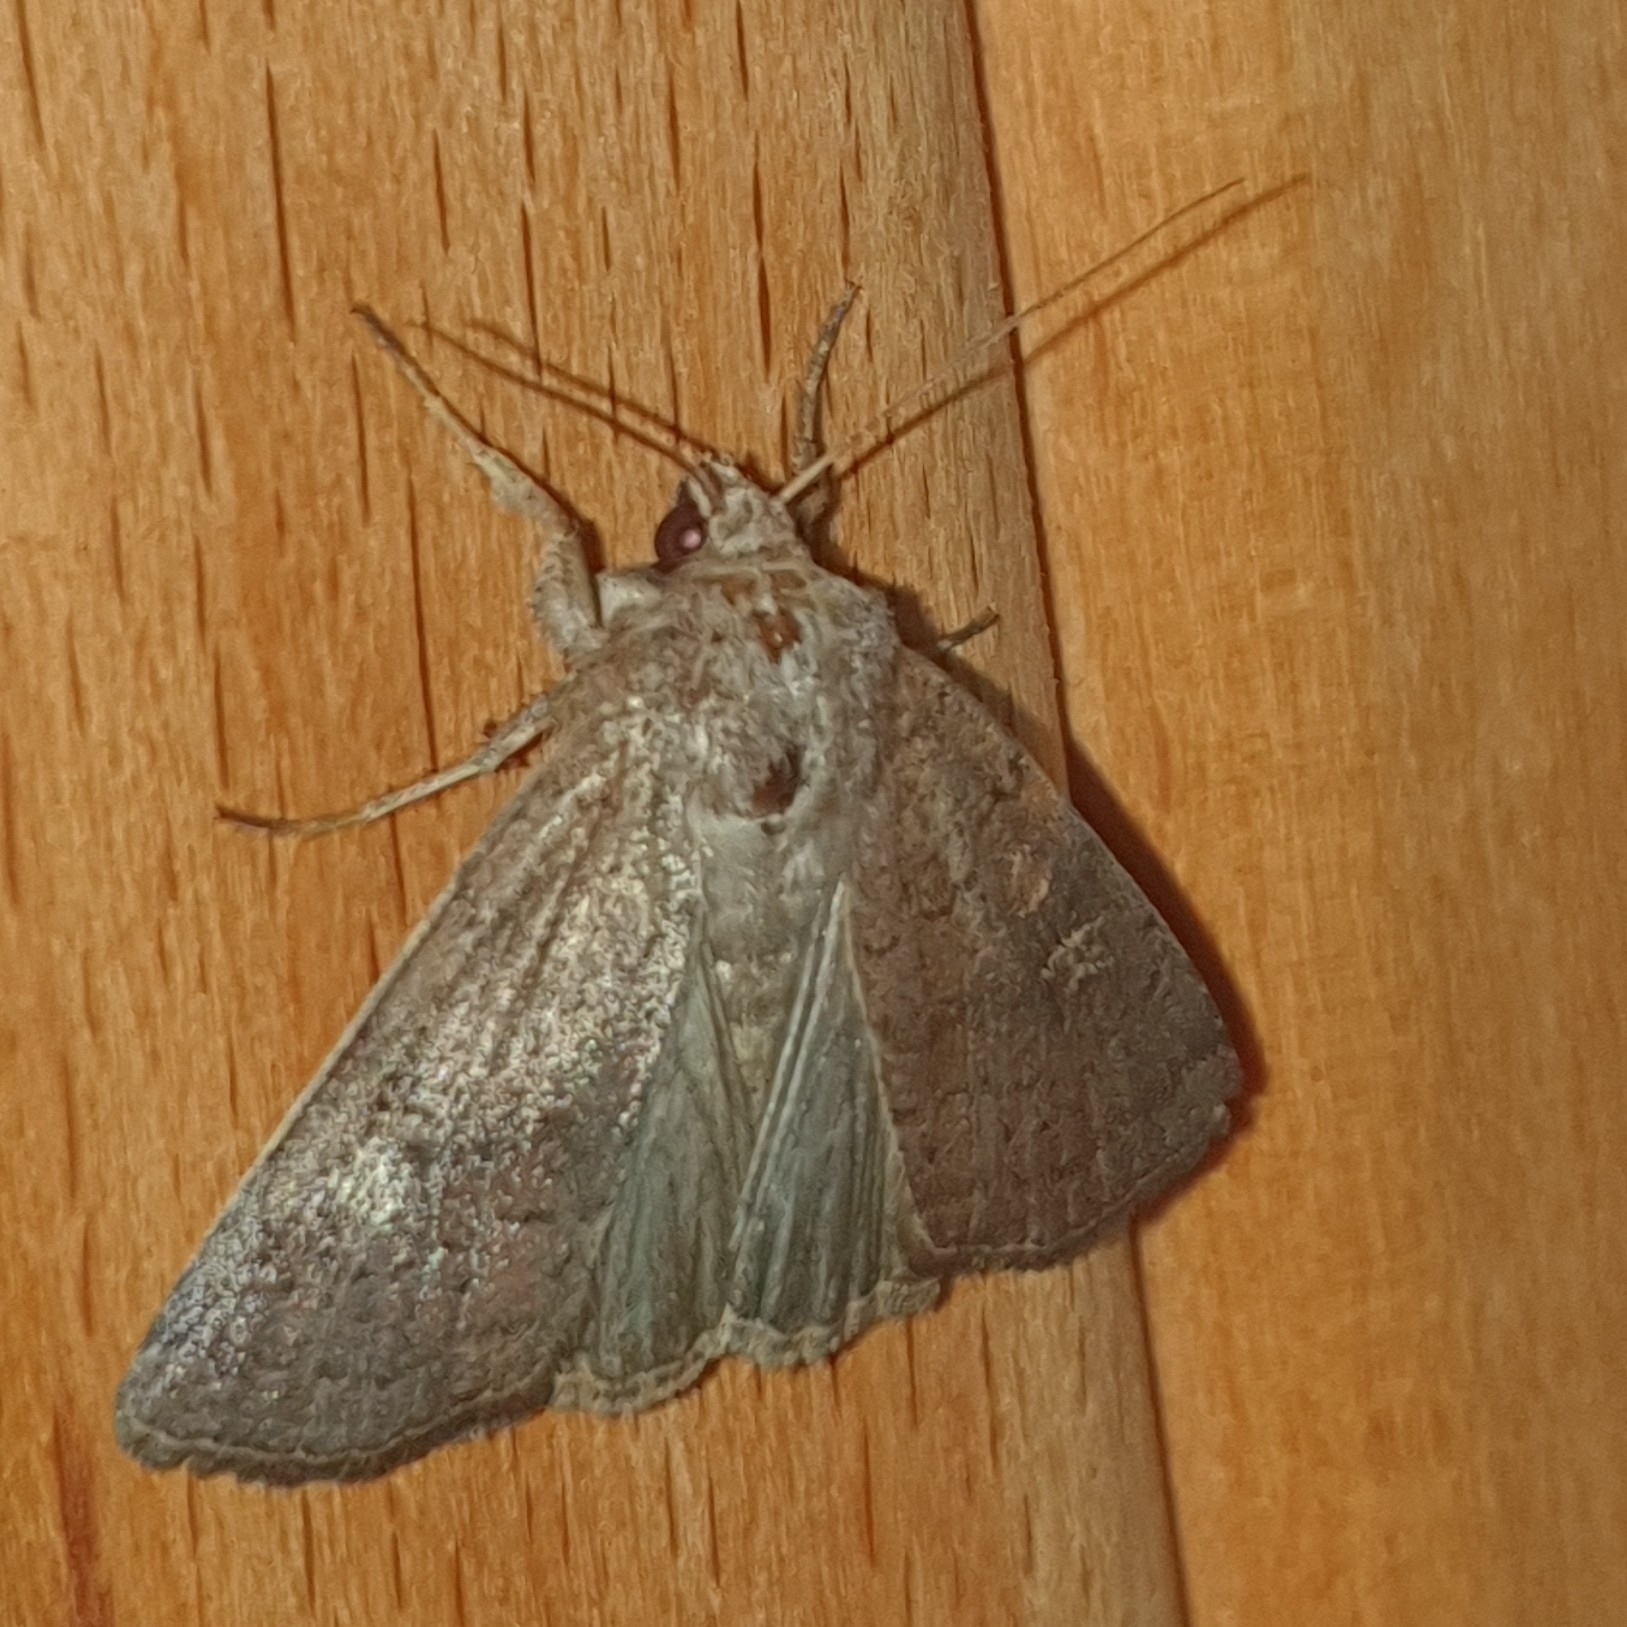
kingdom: Animalia
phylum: Arthropoda
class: Insecta
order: Lepidoptera
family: Noctuidae
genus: Xestia
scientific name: Xestia xanthographa
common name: Square-spot rustic
